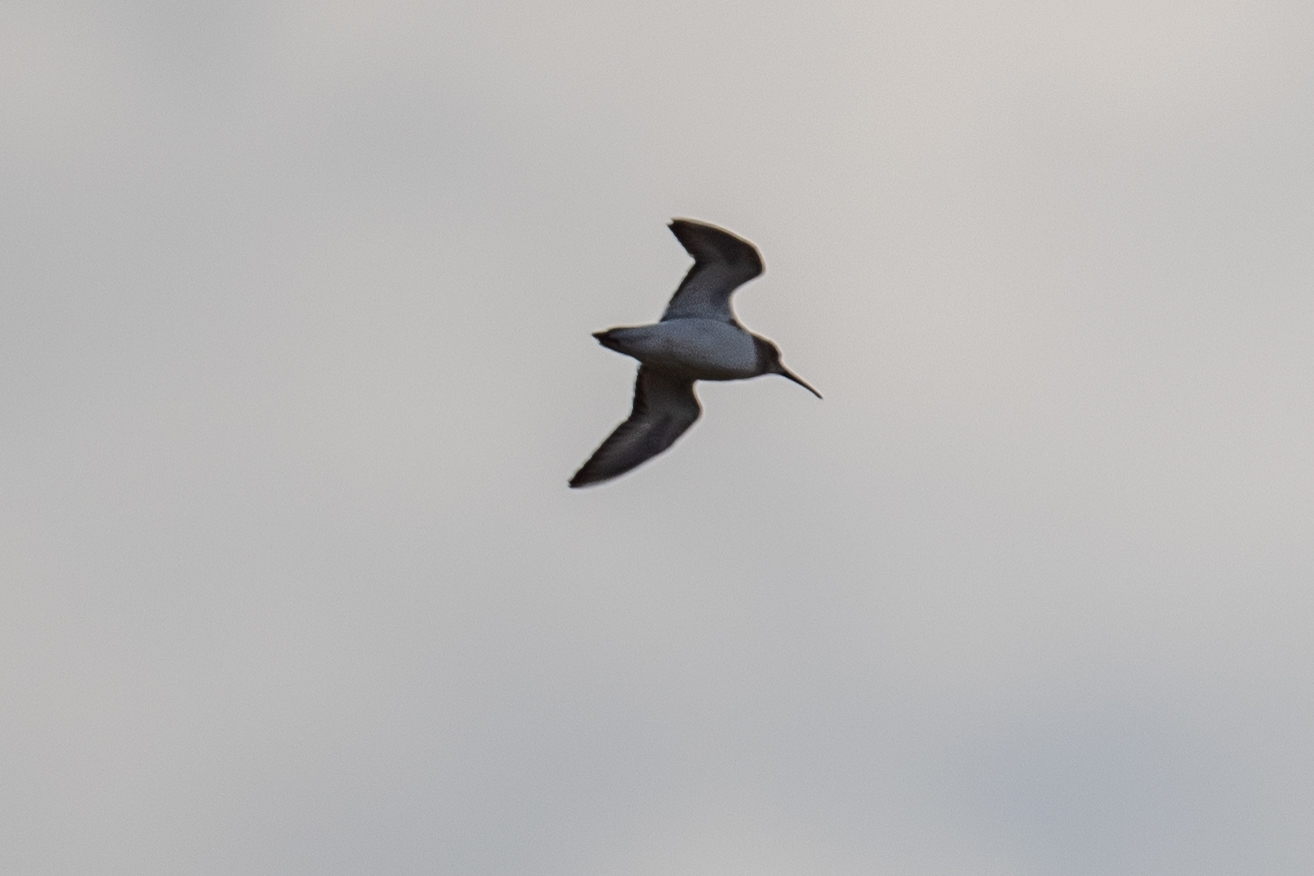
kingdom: Animalia
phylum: Chordata
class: Aves
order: Charadriiformes
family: Scolopacidae
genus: Calidris
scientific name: Calidris alpina
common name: Dunlin
